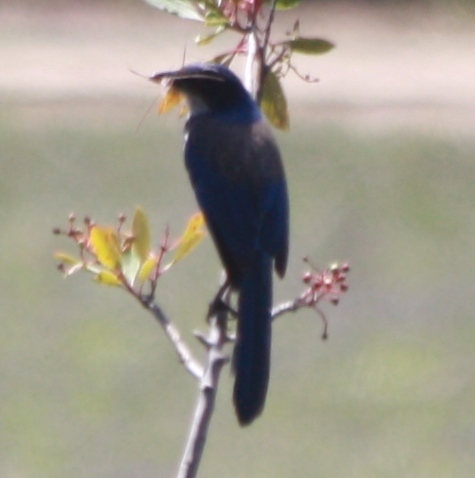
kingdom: Animalia
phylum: Chordata
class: Aves
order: Passeriformes
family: Corvidae
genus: Aphelocoma
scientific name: Aphelocoma californica
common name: California scrub-jay
